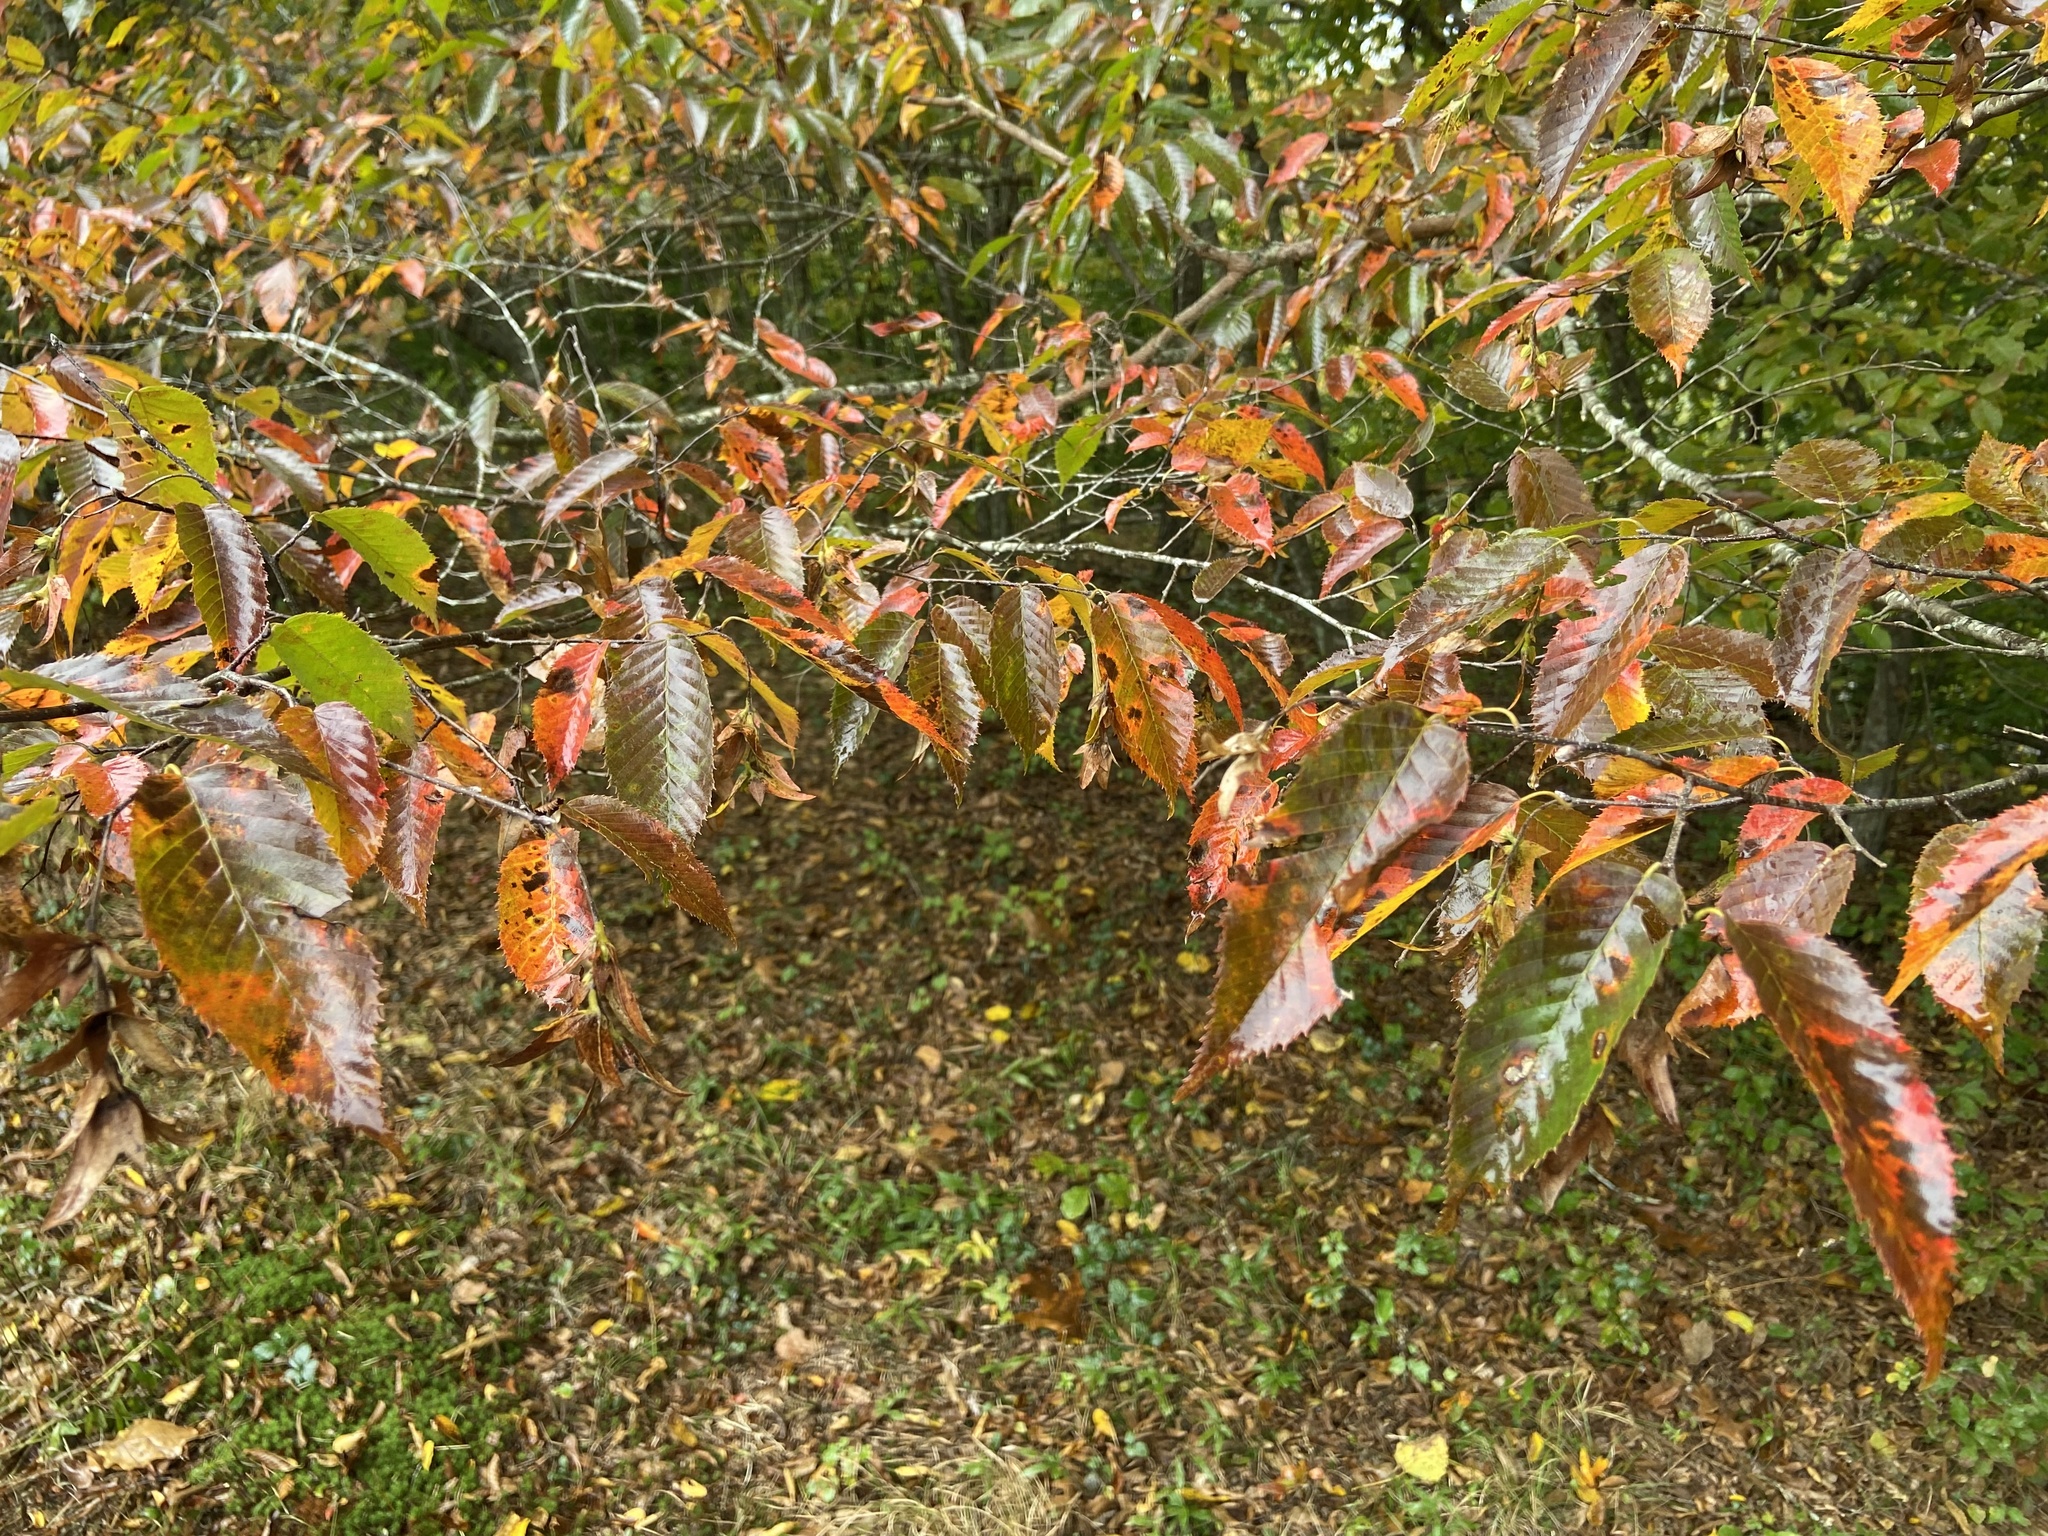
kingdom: Plantae
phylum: Tracheophyta
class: Magnoliopsida
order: Fagales
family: Betulaceae
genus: Carpinus
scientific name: Carpinus caroliniana
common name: American hornbeam
